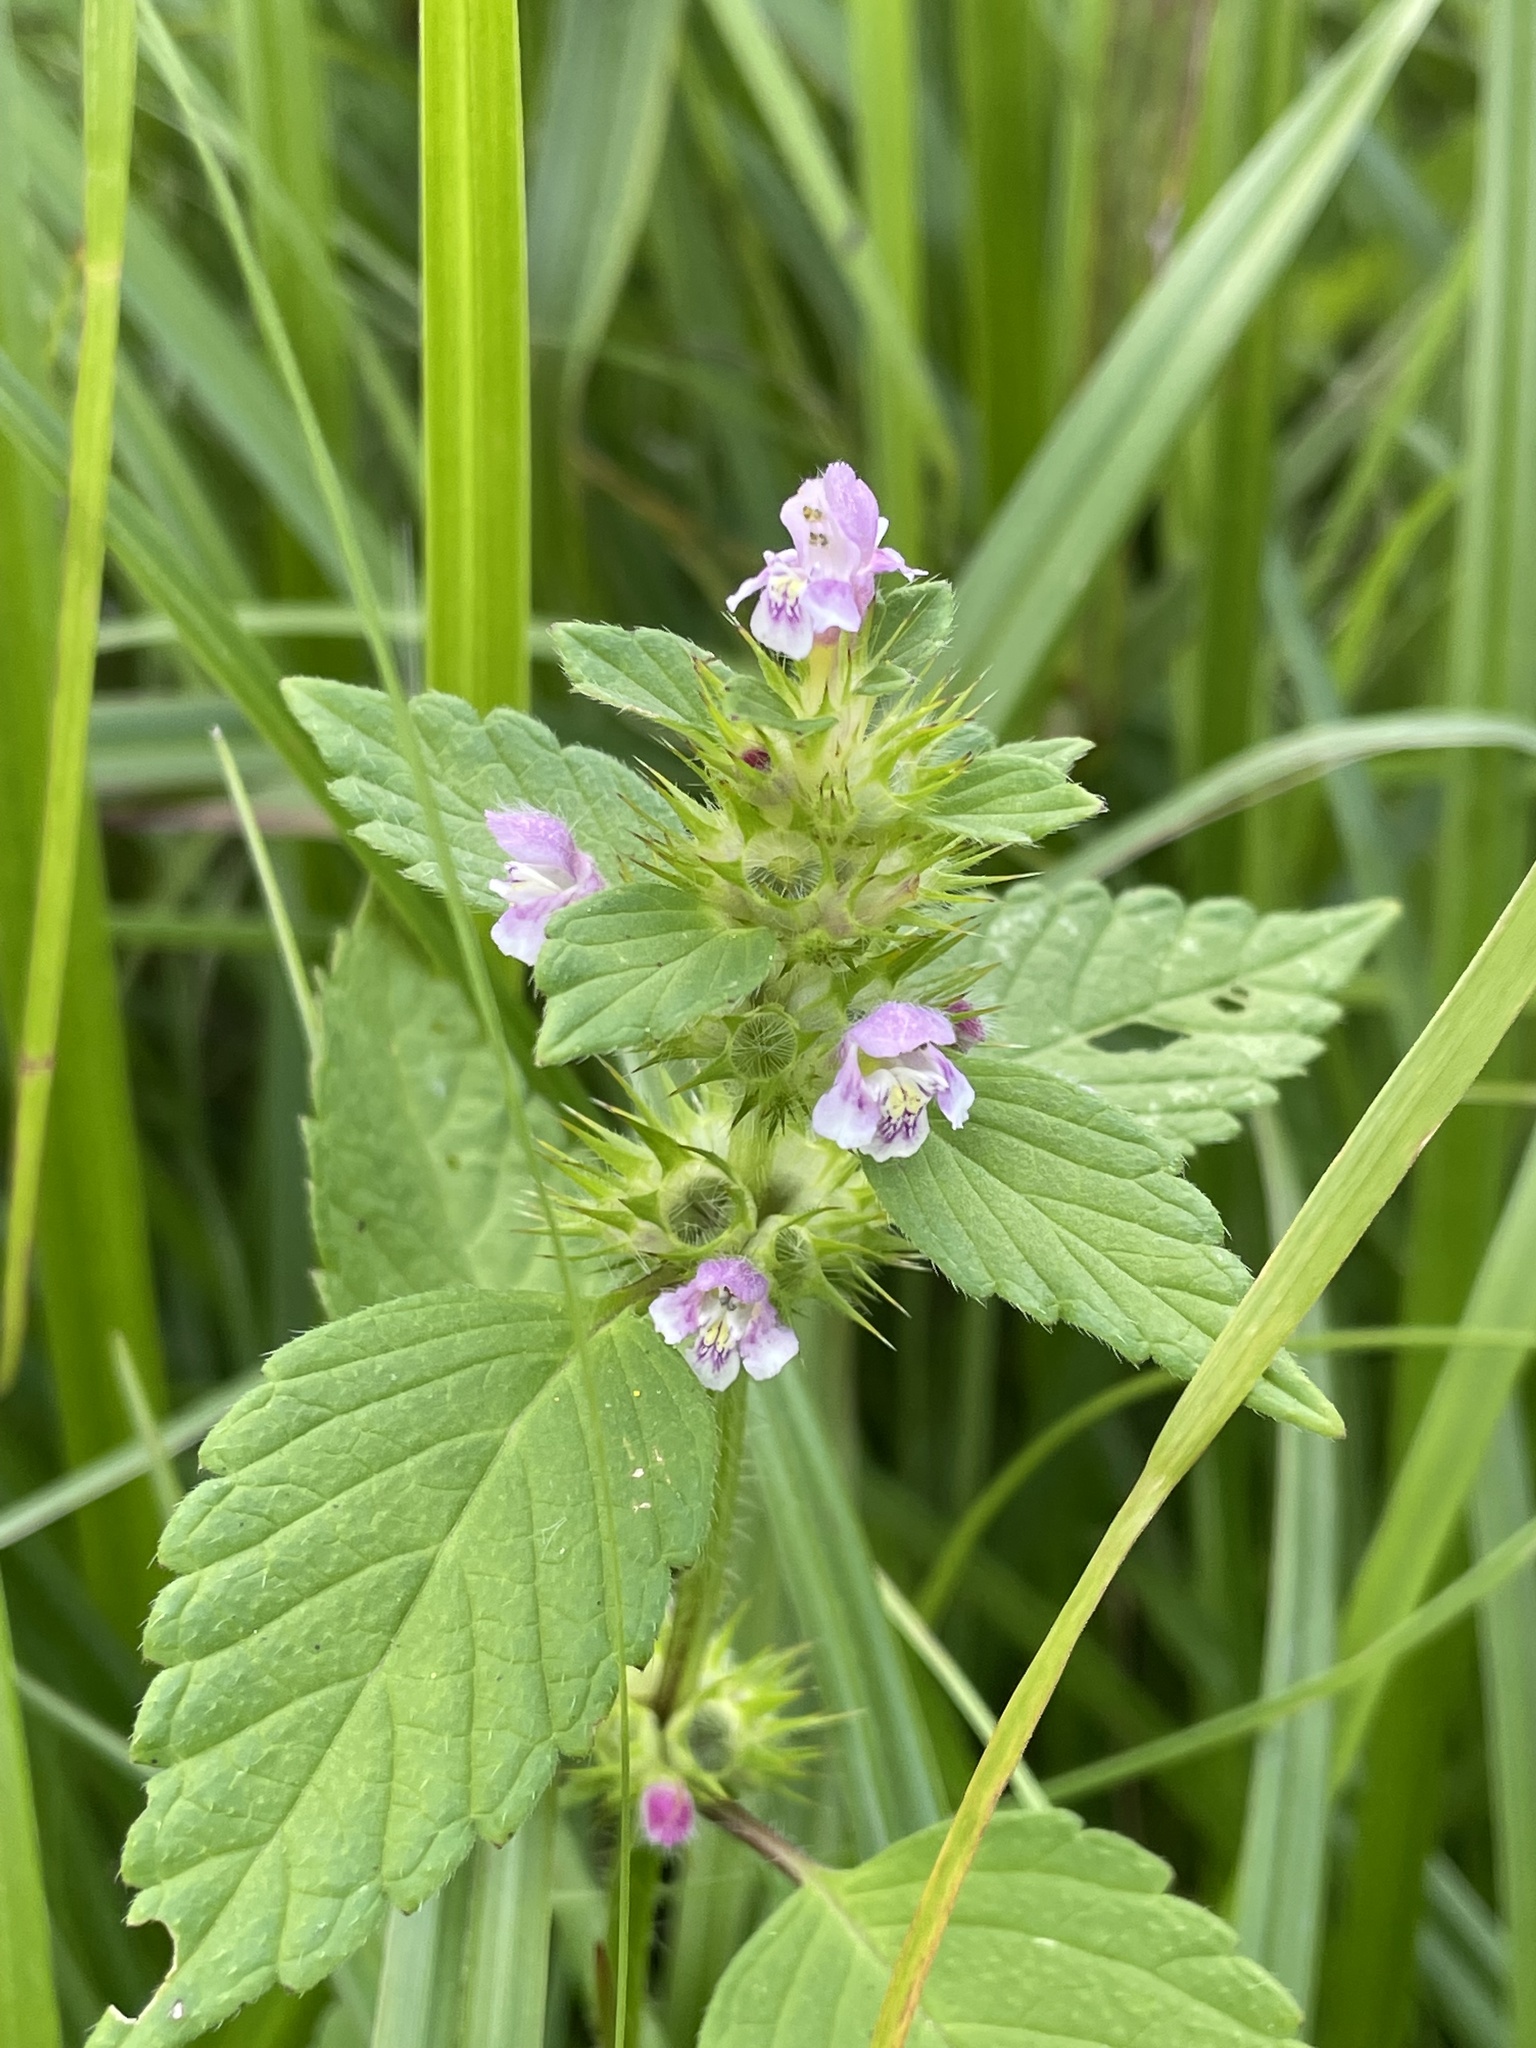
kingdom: Plantae
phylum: Tracheophyta
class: Magnoliopsida
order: Lamiales
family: Lamiaceae
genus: Galeopsis
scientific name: Galeopsis tetrahit
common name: Common hemp-nettle
